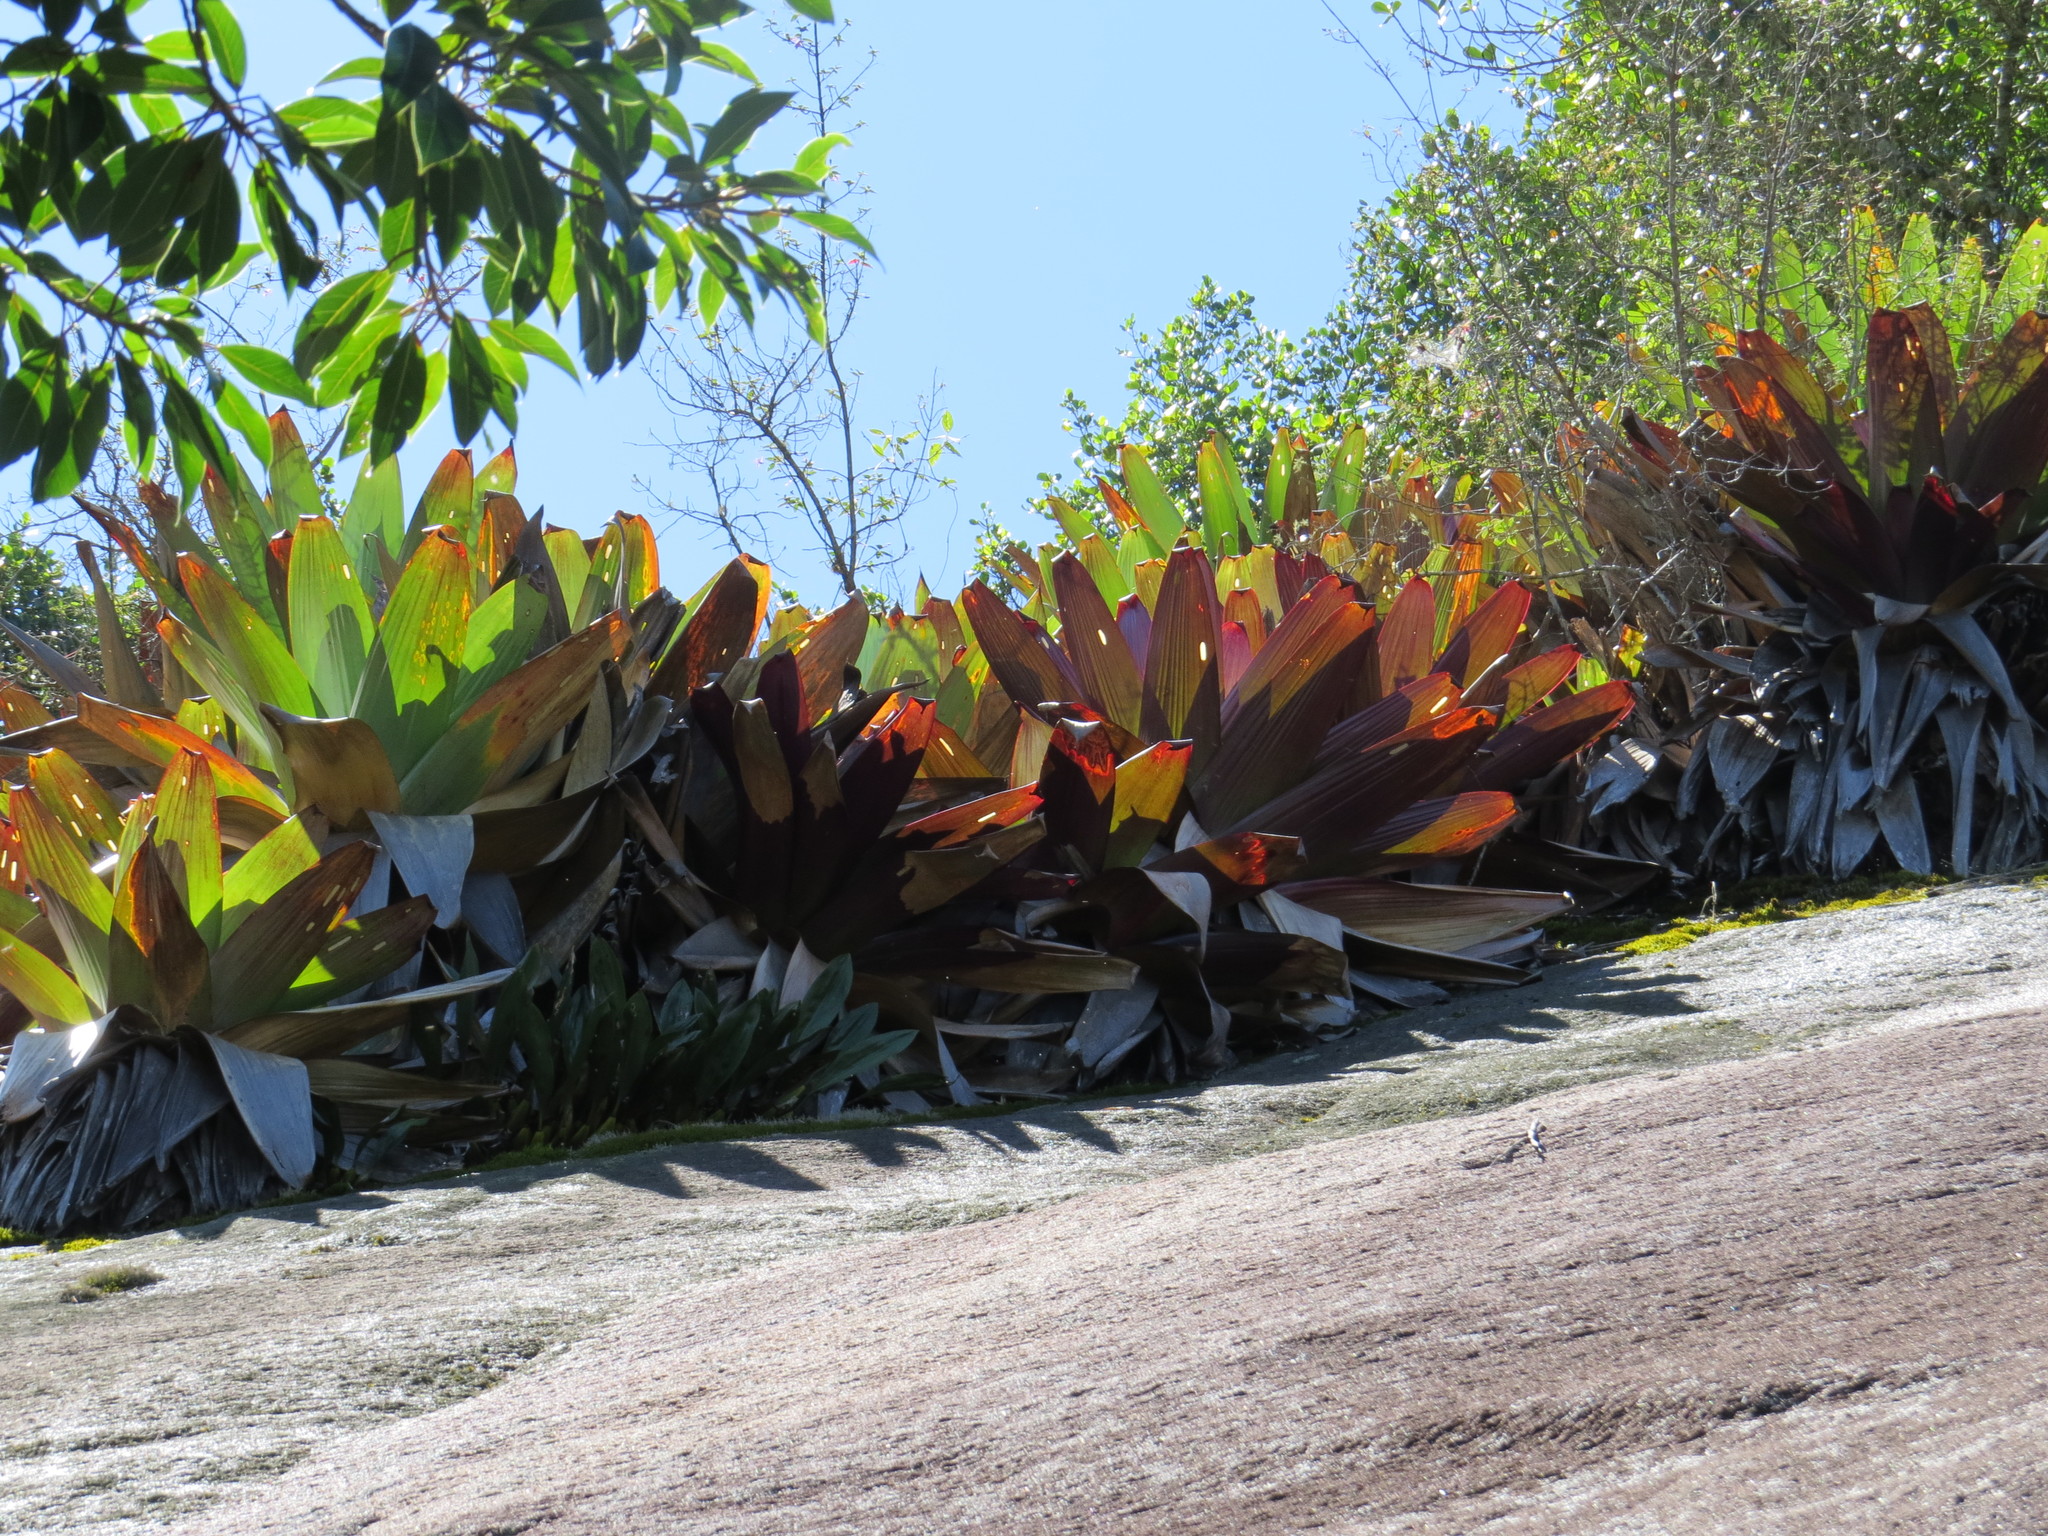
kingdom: Plantae
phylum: Tracheophyta
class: Liliopsida
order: Poales
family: Bromeliaceae
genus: Alcantarea
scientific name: Alcantarea imperialis
